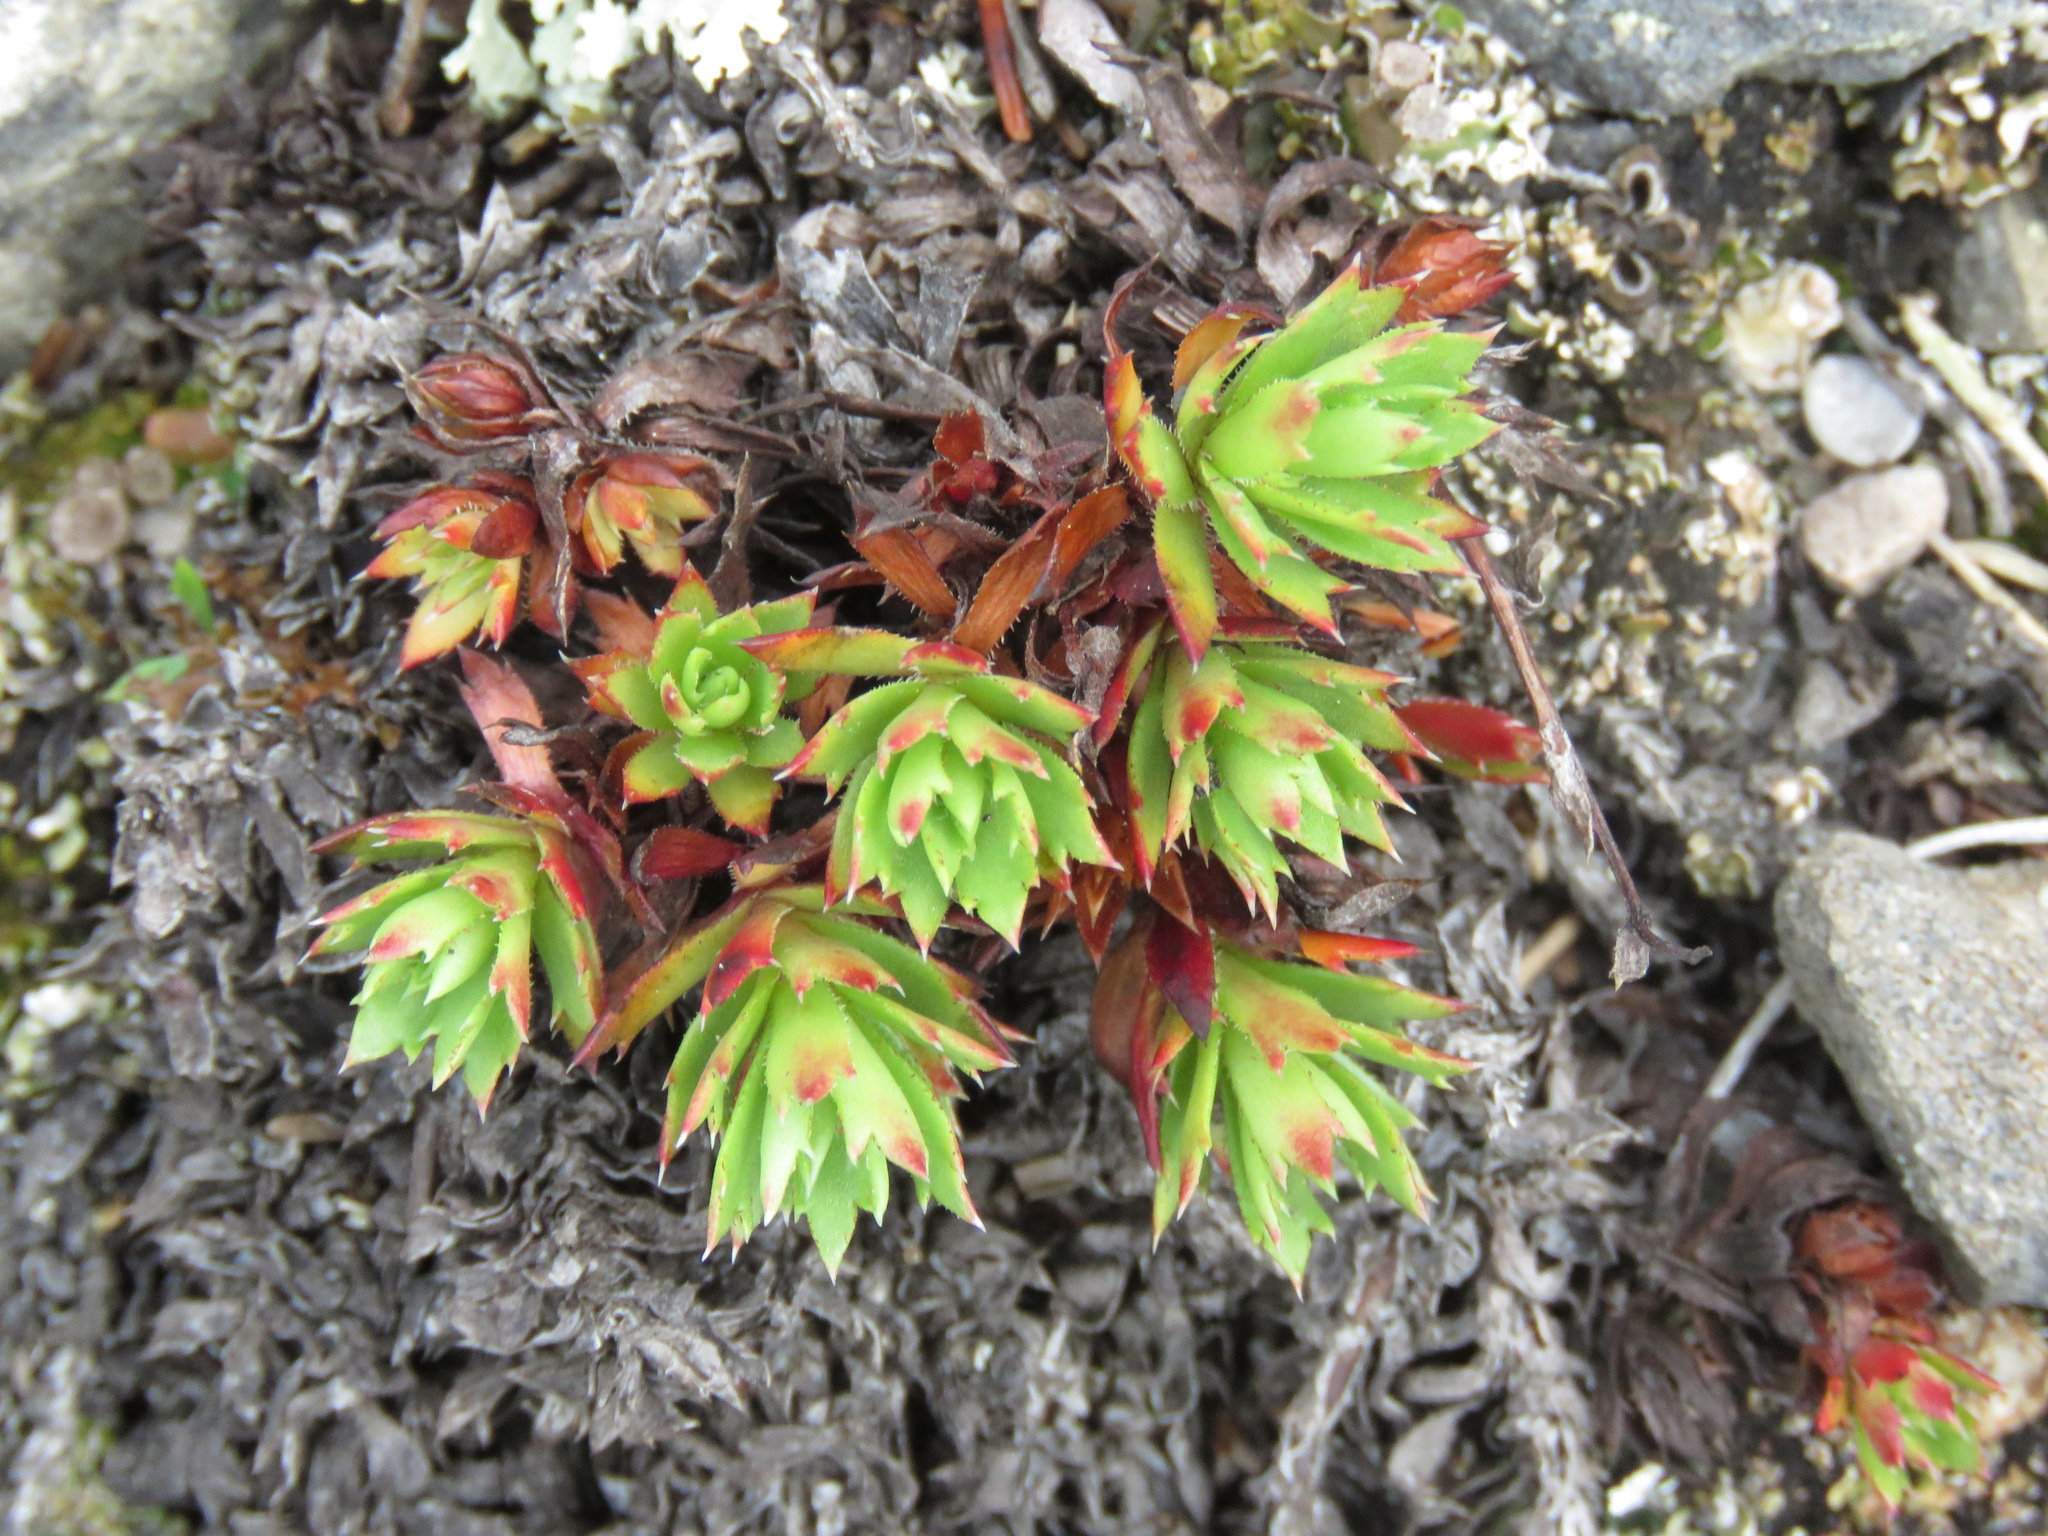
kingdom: Plantae
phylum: Tracheophyta
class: Magnoliopsida
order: Saxifragales
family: Saxifragaceae
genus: Saxifraga
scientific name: Saxifraga tricuspidata
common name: Prickly saxifrage
